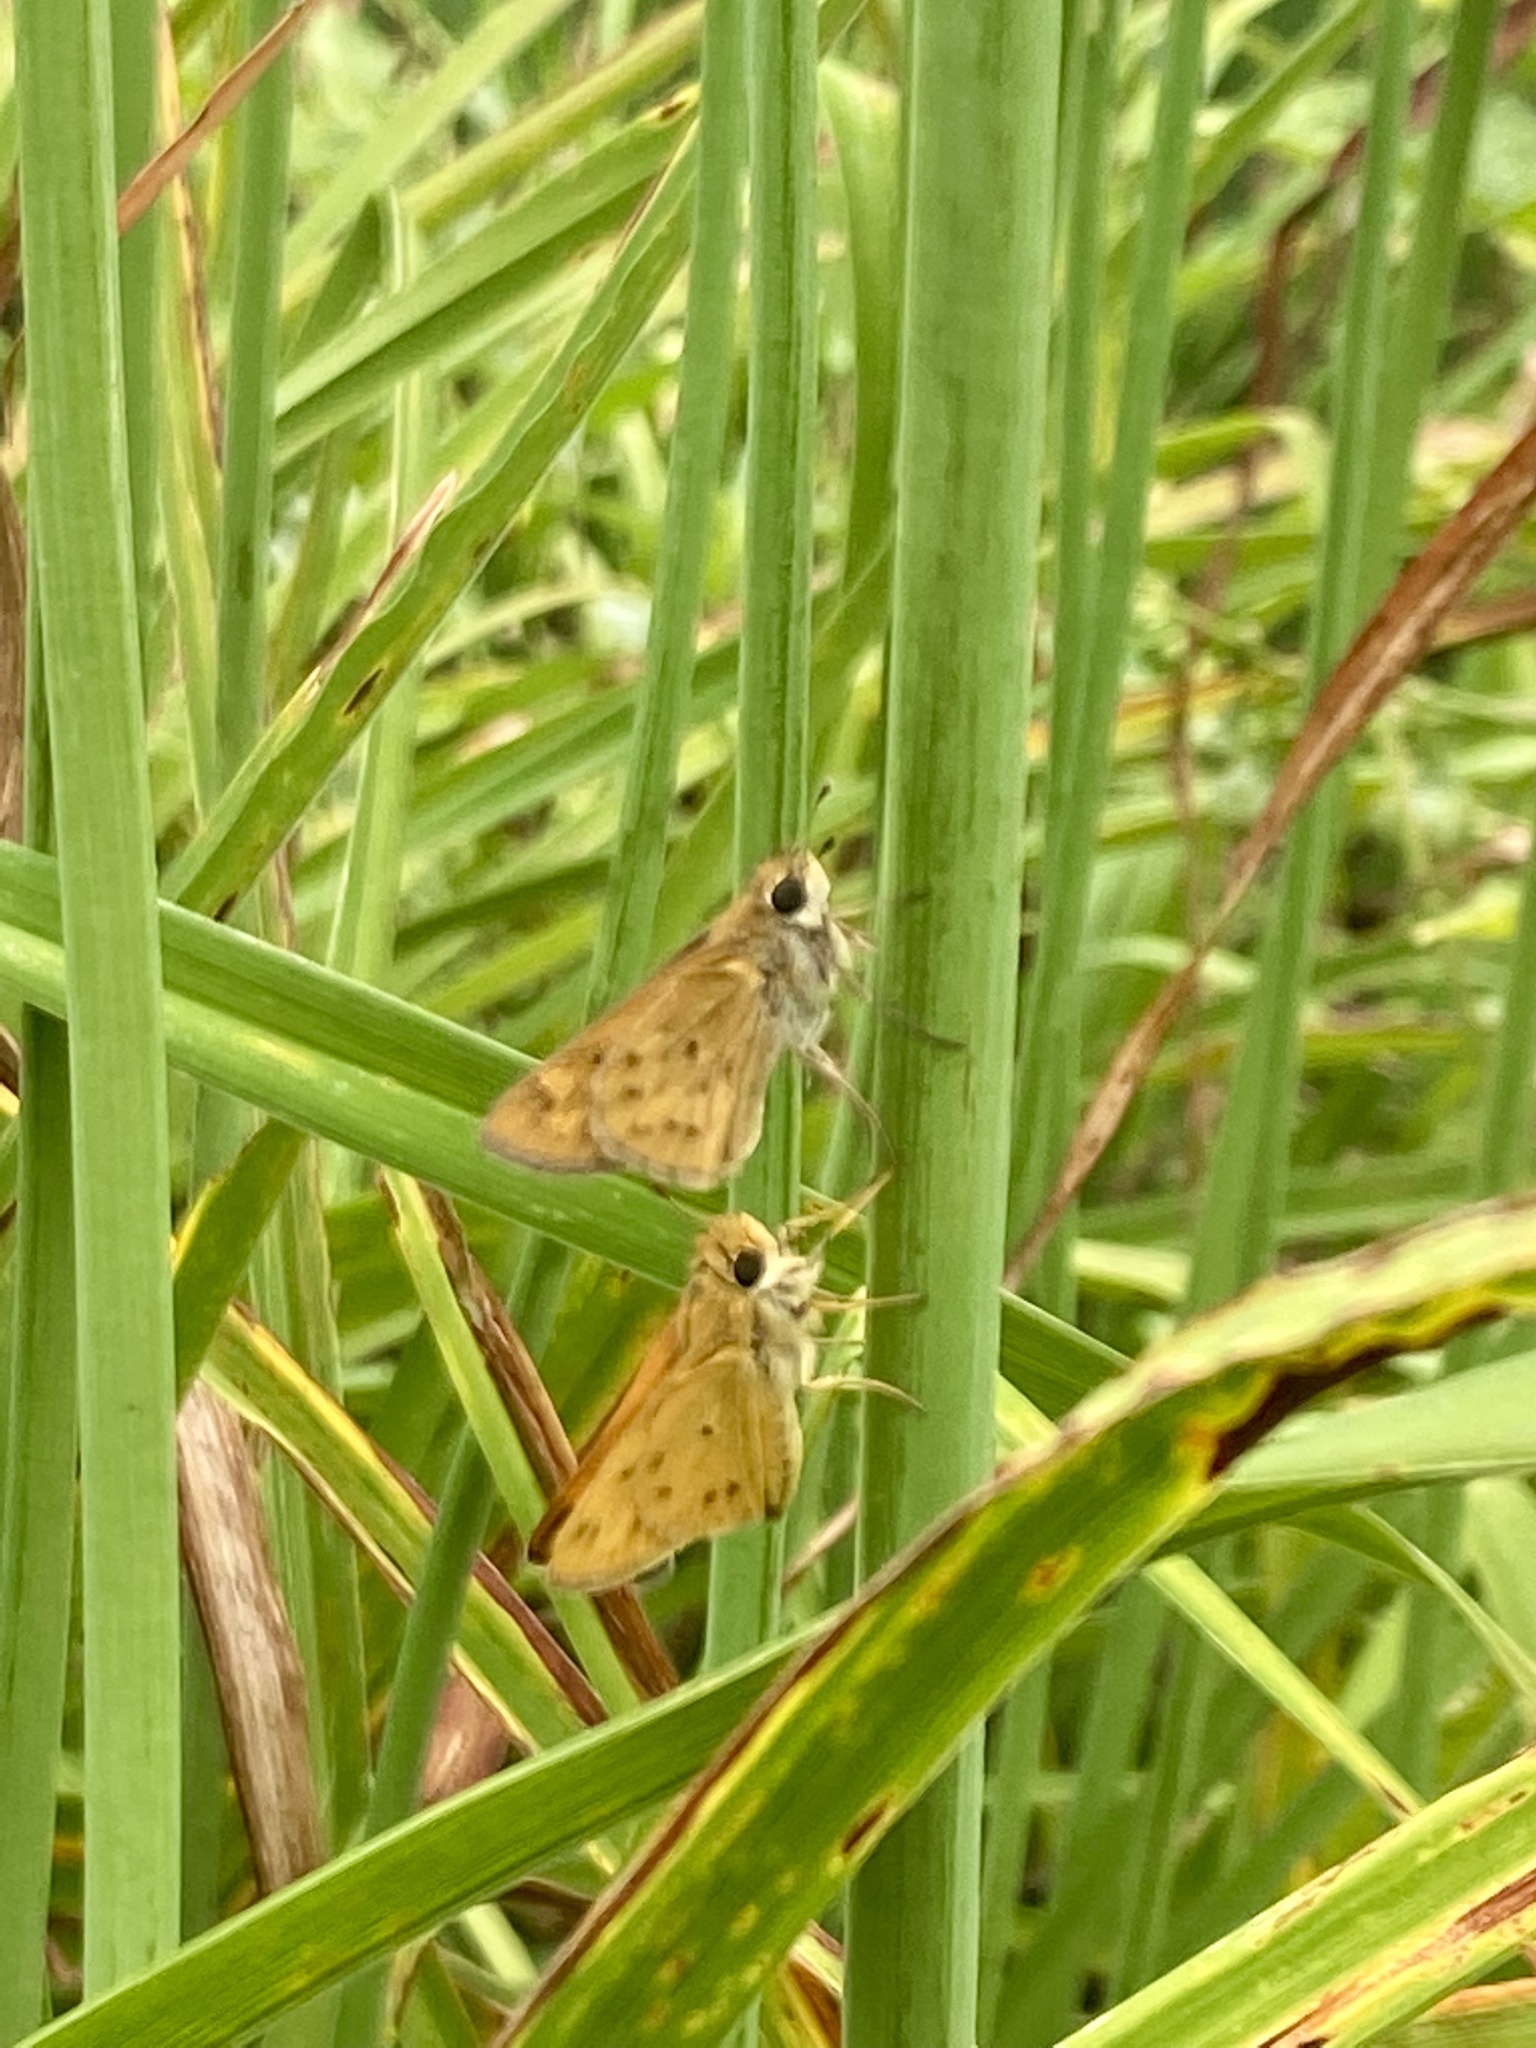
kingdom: Animalia
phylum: Arthropoda
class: Insecta
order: Lepidoptera
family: Hesperiidae
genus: Hylephila
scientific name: Hylephila phyleus
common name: Fiery skipper
